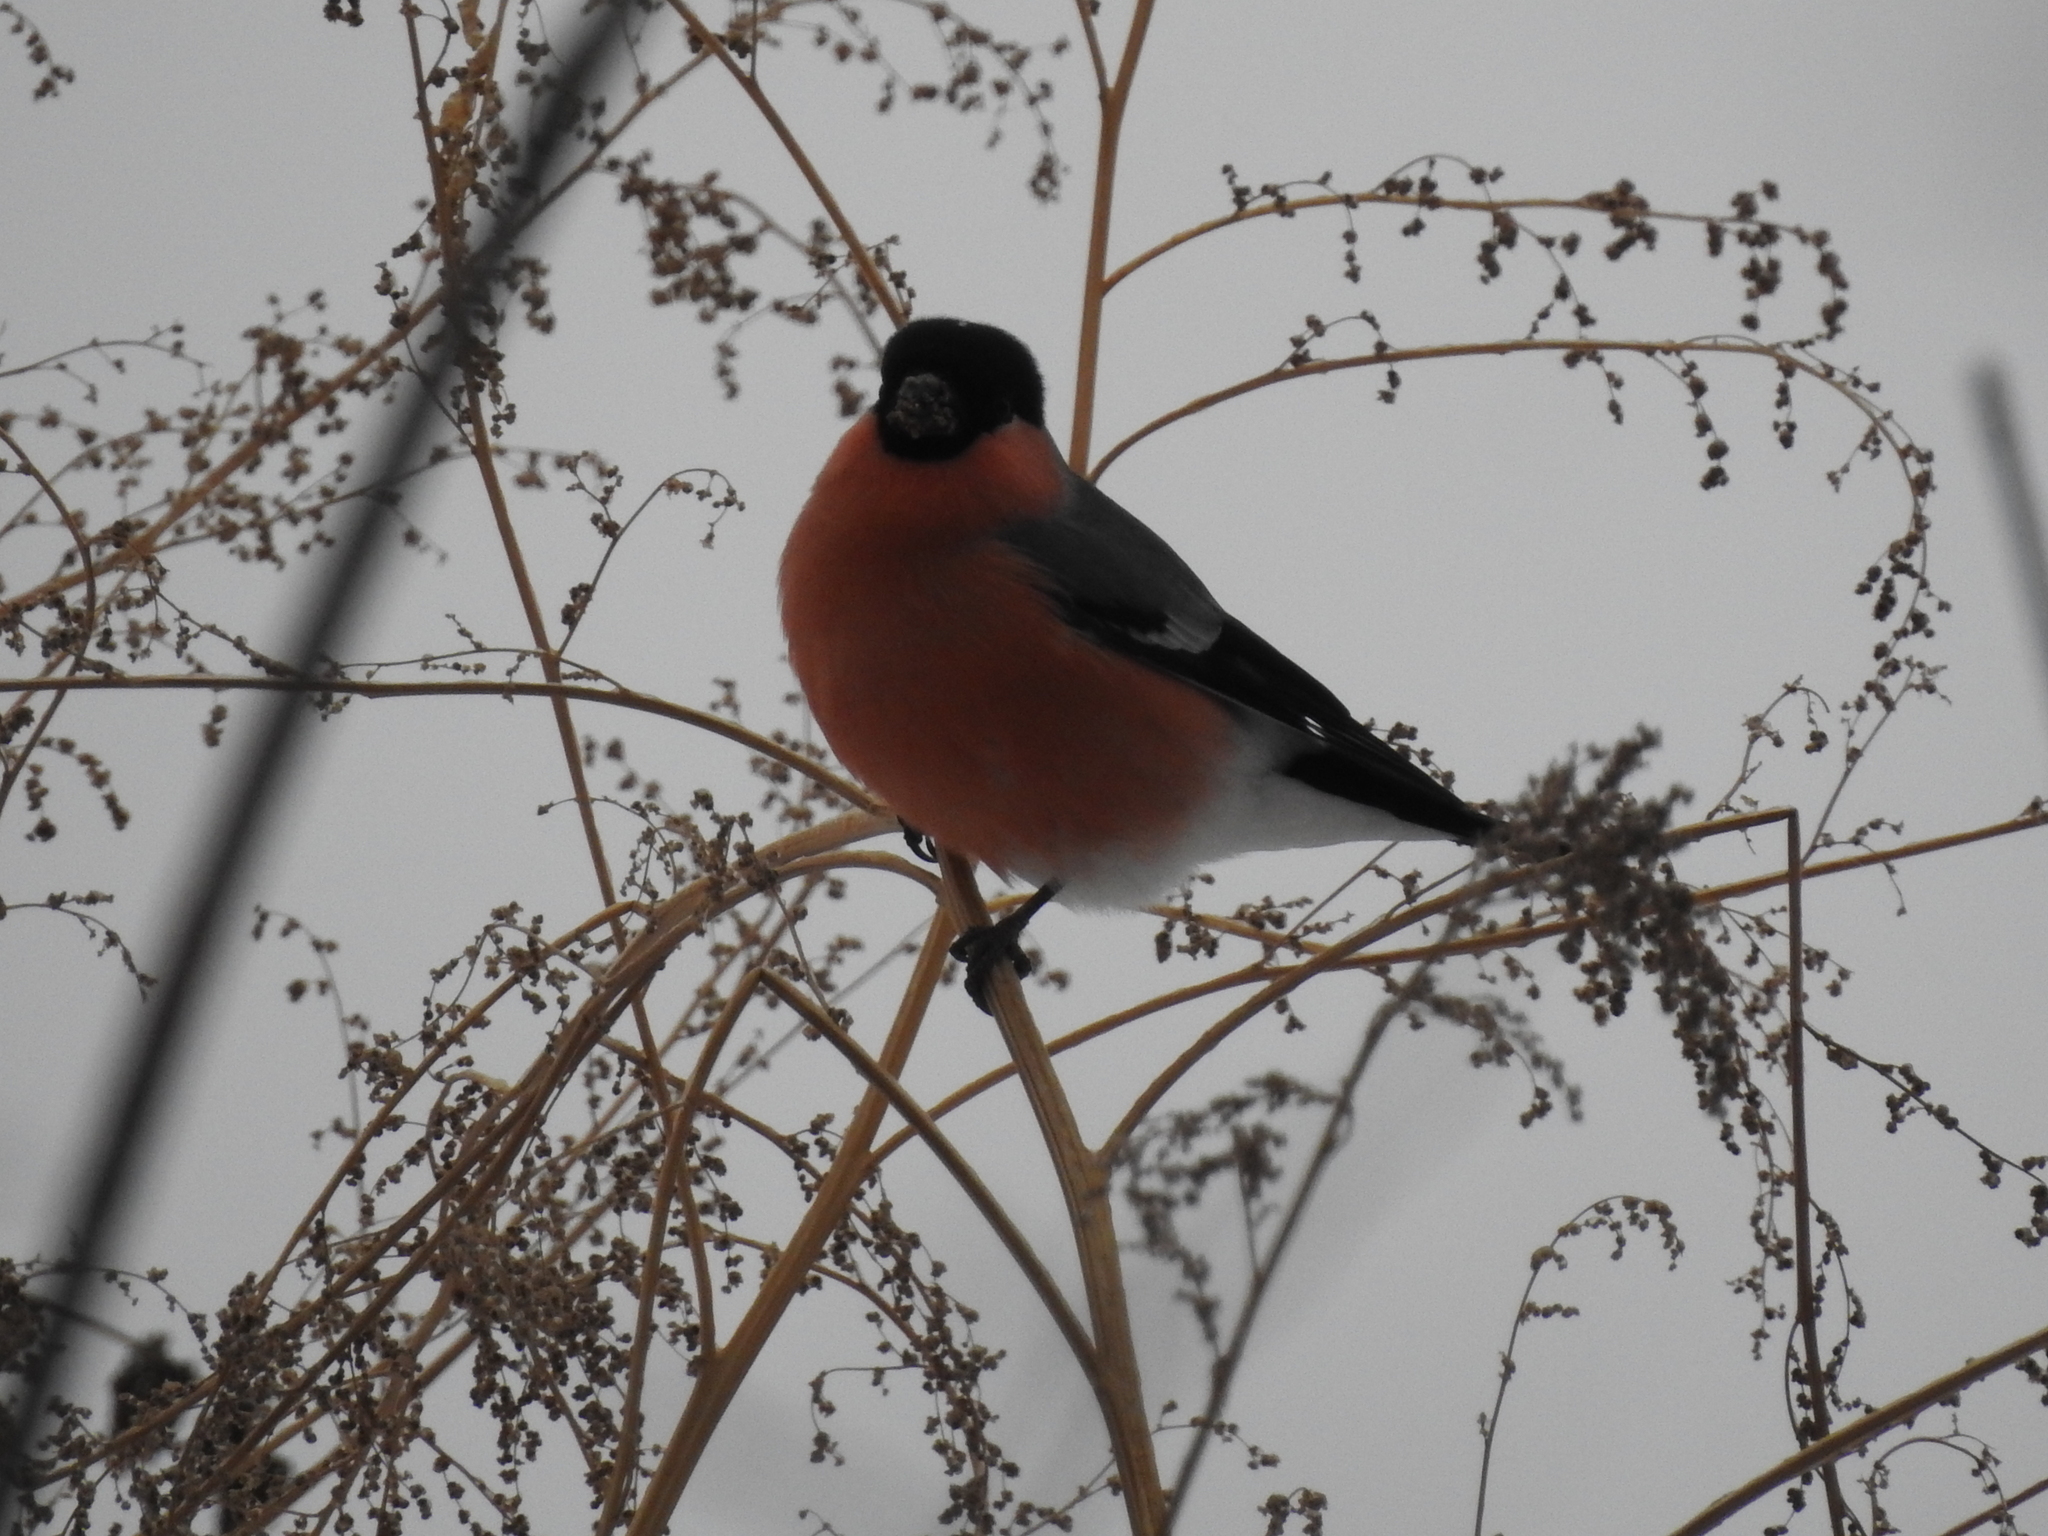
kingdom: Animalia
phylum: Chordata
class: Aves
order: Passeriformes
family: Fringillidae
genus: Pyrrhula
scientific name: Pyrrhula pyrrhula
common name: Eurasian bullfinch
